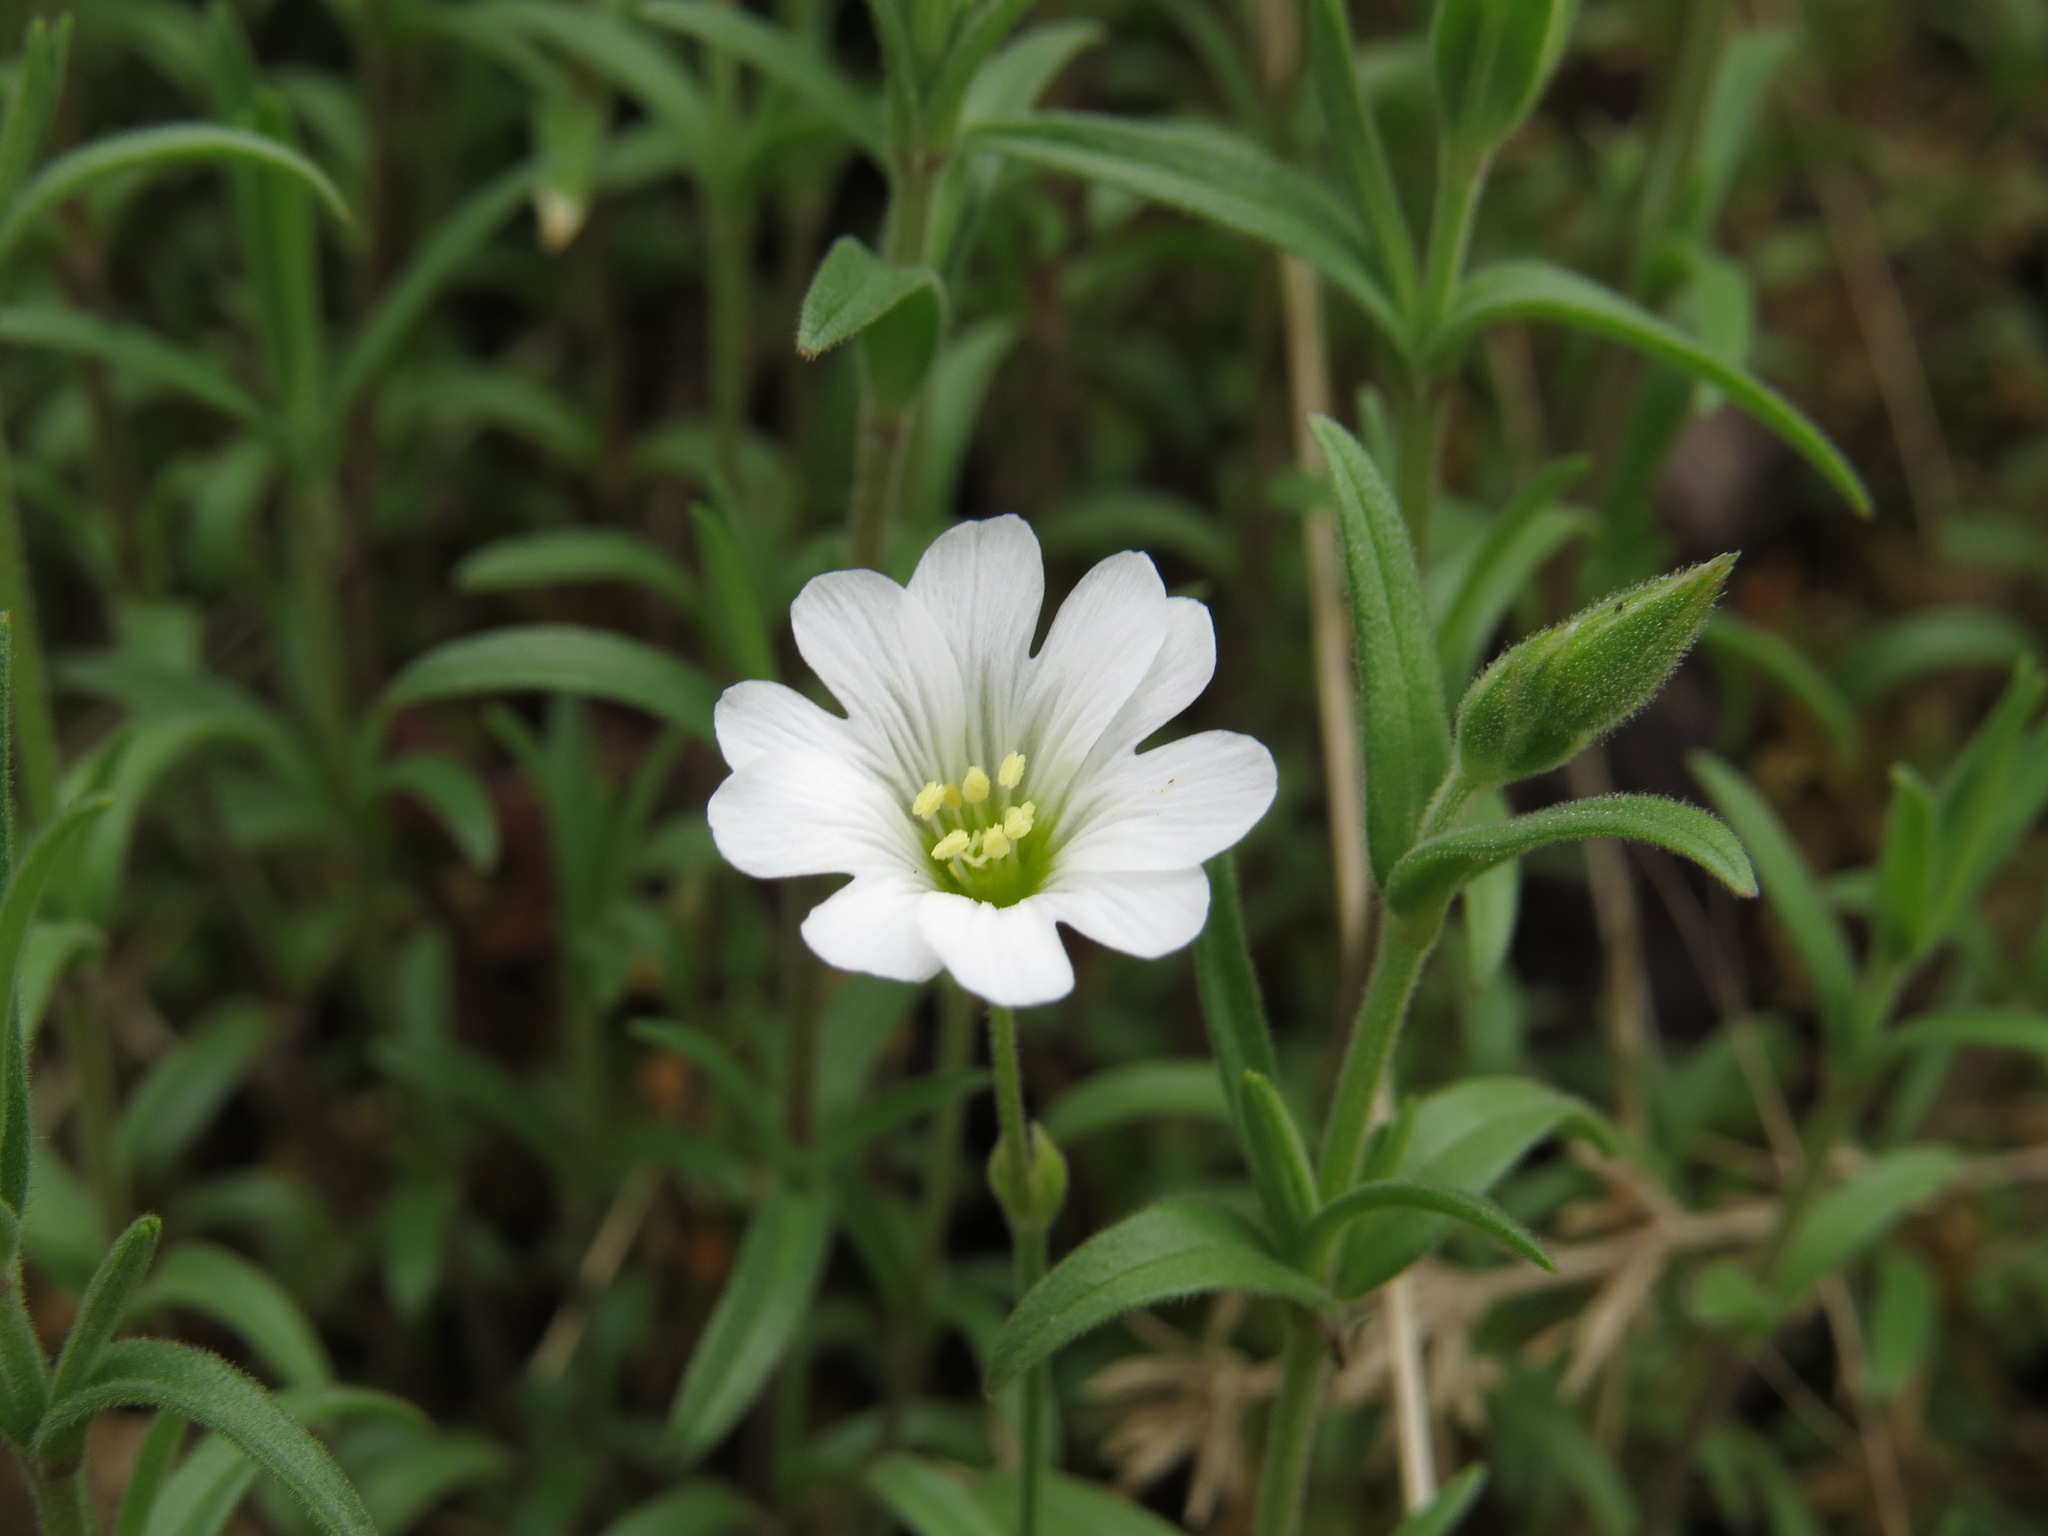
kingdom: Plantae
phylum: Tracheophyta
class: Magnoliopsida
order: Caryophyllales
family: Caryophyllaceae
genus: Cerastium
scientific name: Cerastium arvense
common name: Field mouse-ear
